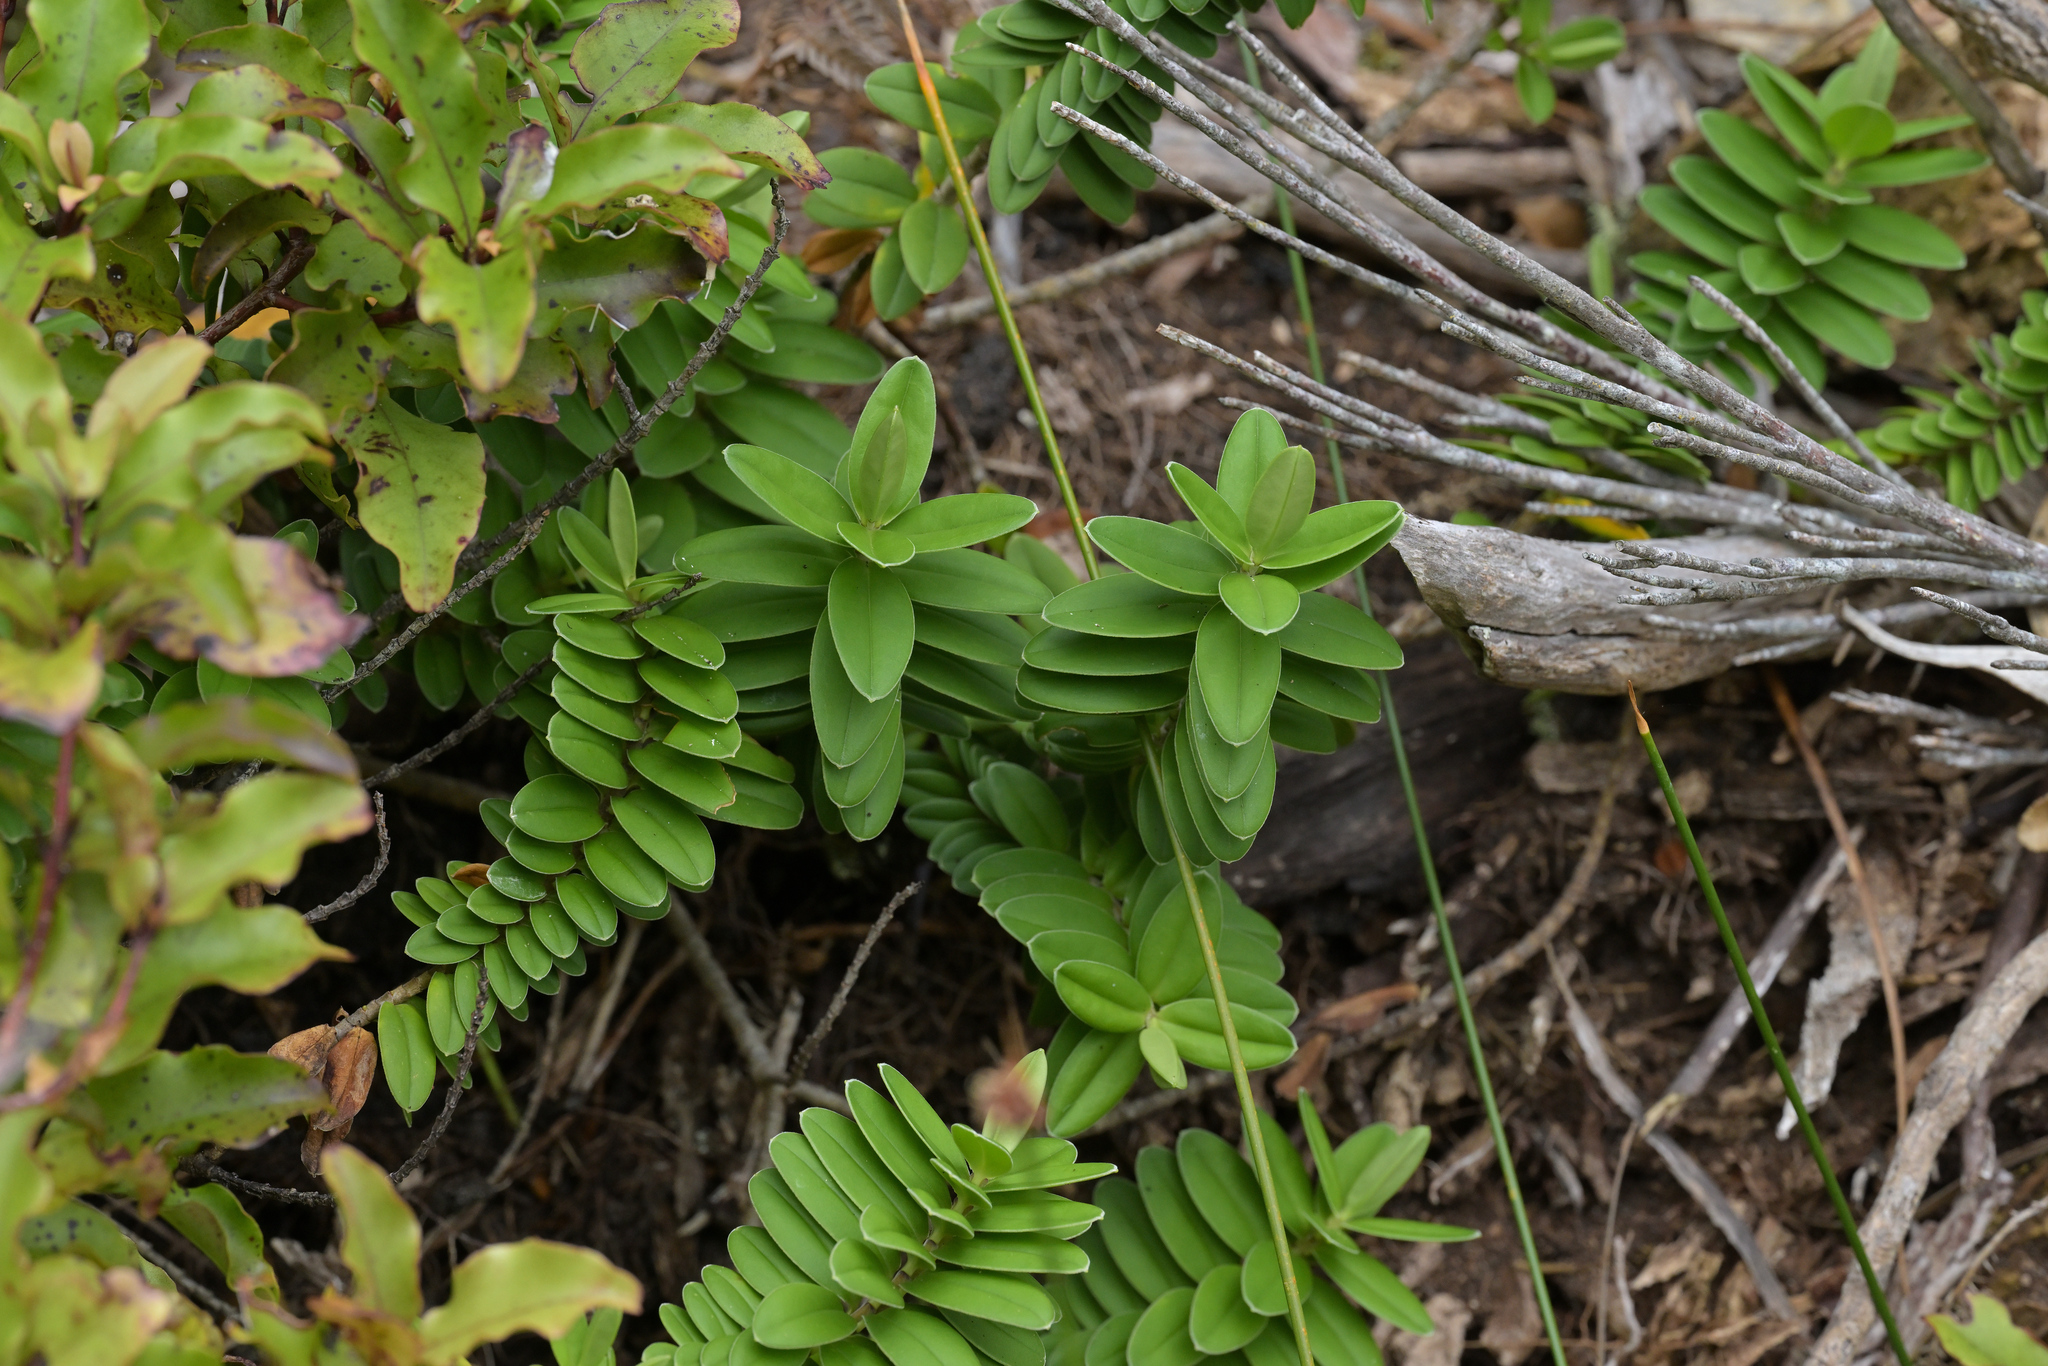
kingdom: Plantae
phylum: Tracheophyta
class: Magnoliopsida
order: Lamiales
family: Plantaginaceae
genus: Veronica
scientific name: Veronica elliptica
